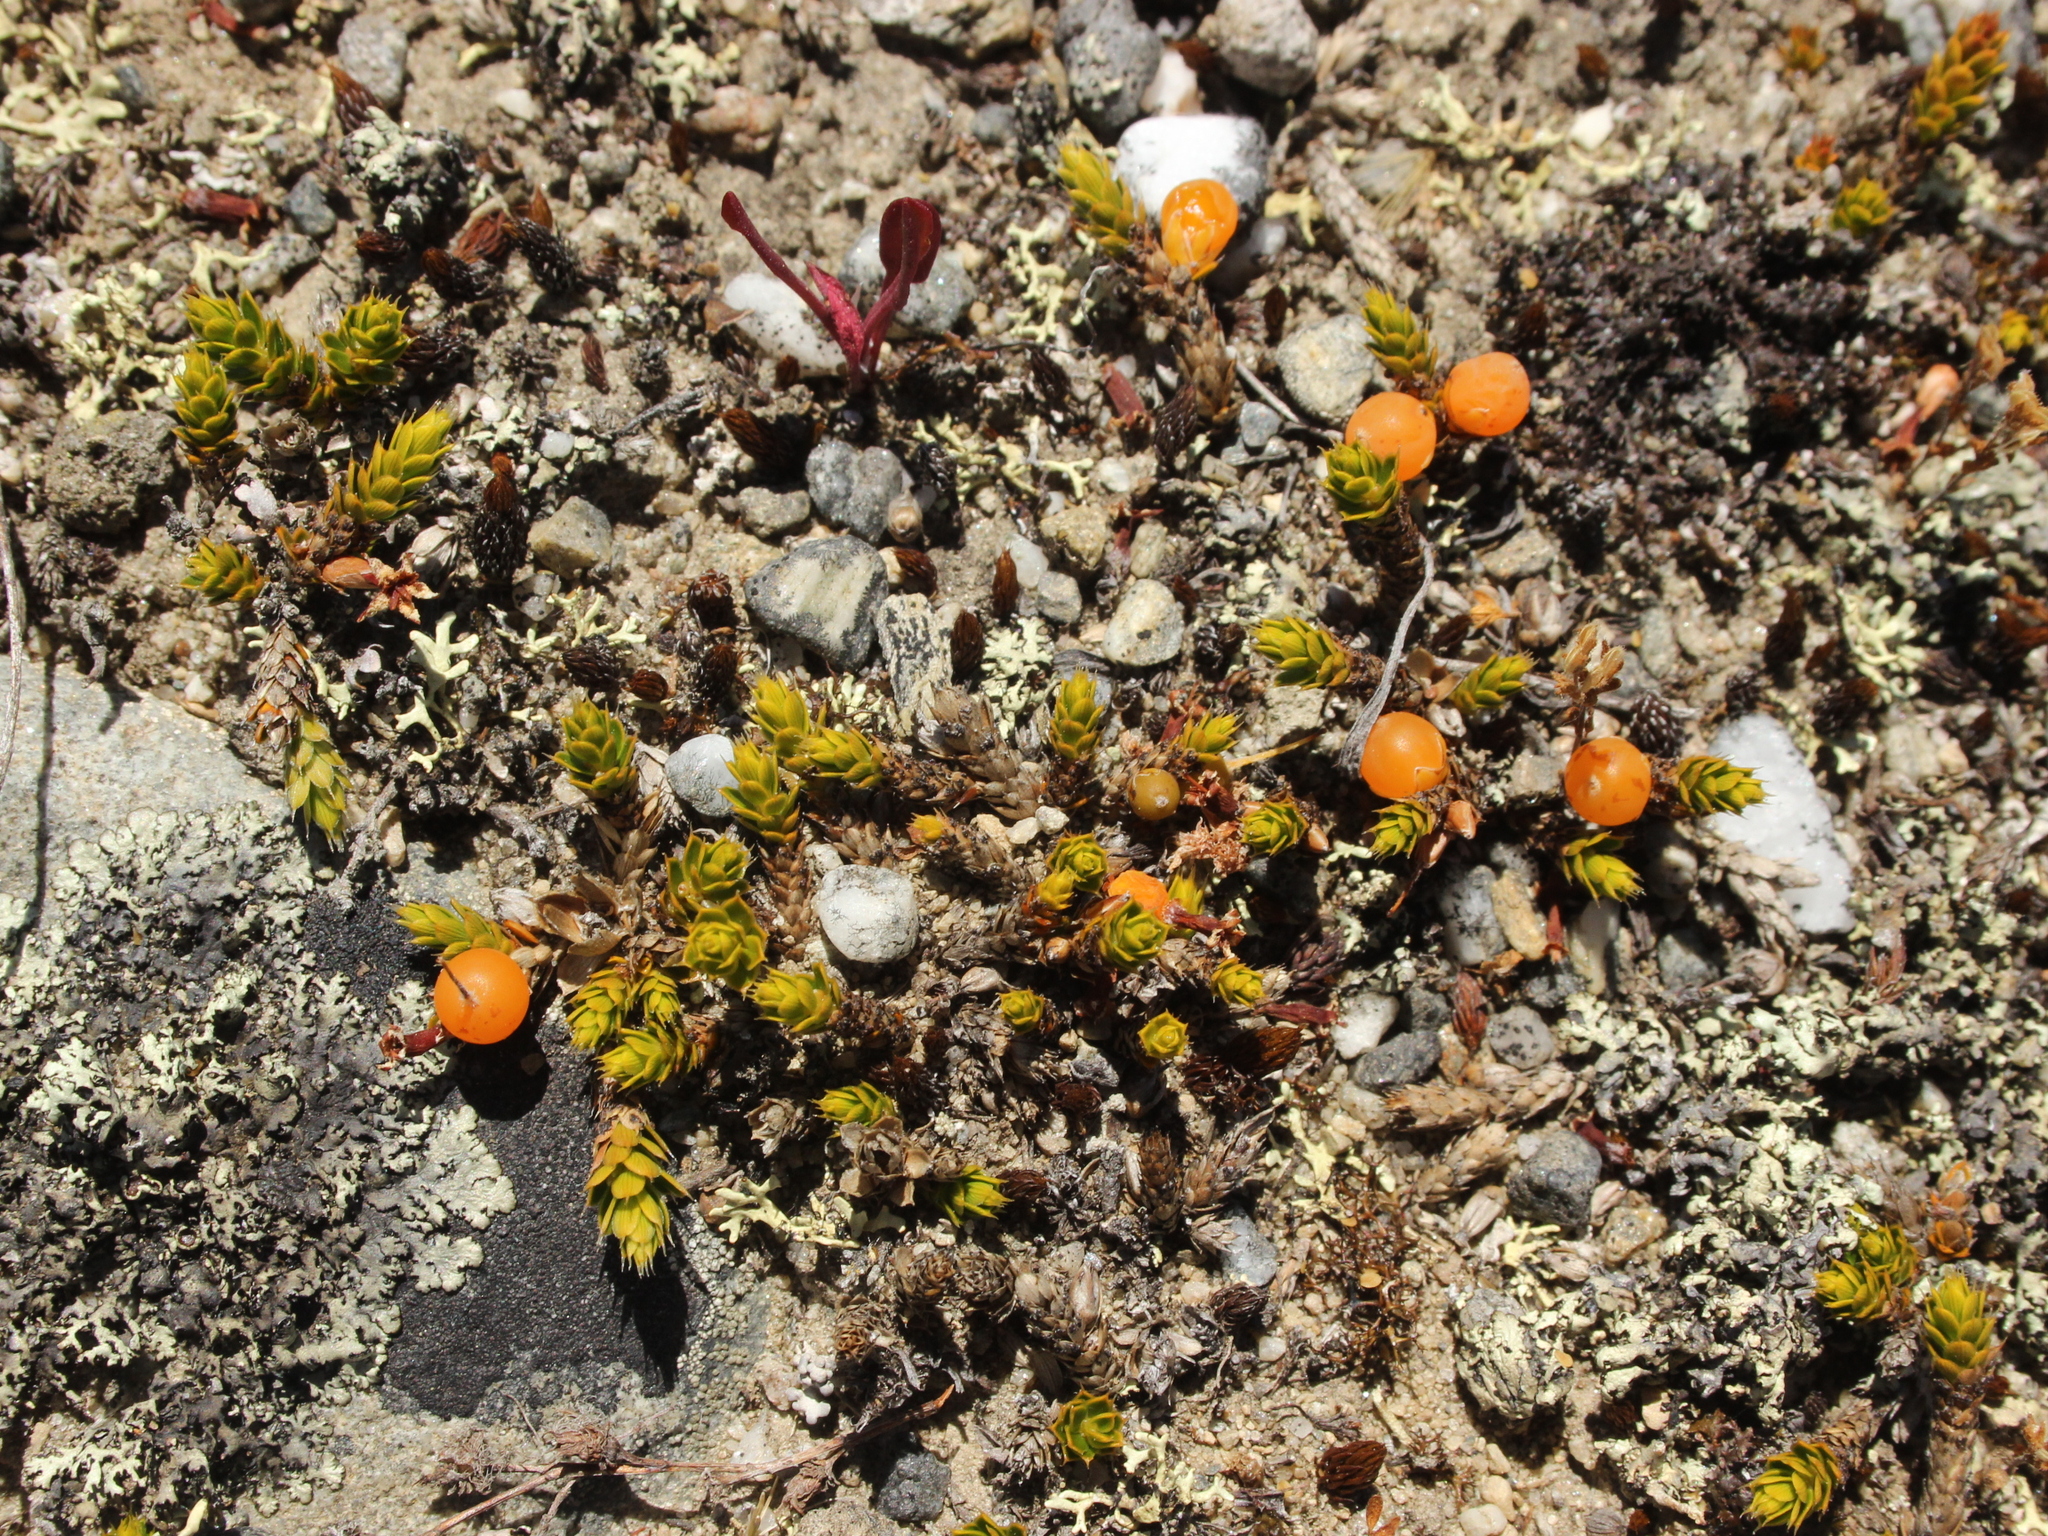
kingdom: Plantae
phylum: Tracheophyta
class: Magnoliopsida
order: Ericales
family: Ericaceae
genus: Styphelia
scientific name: Styphelia nana
